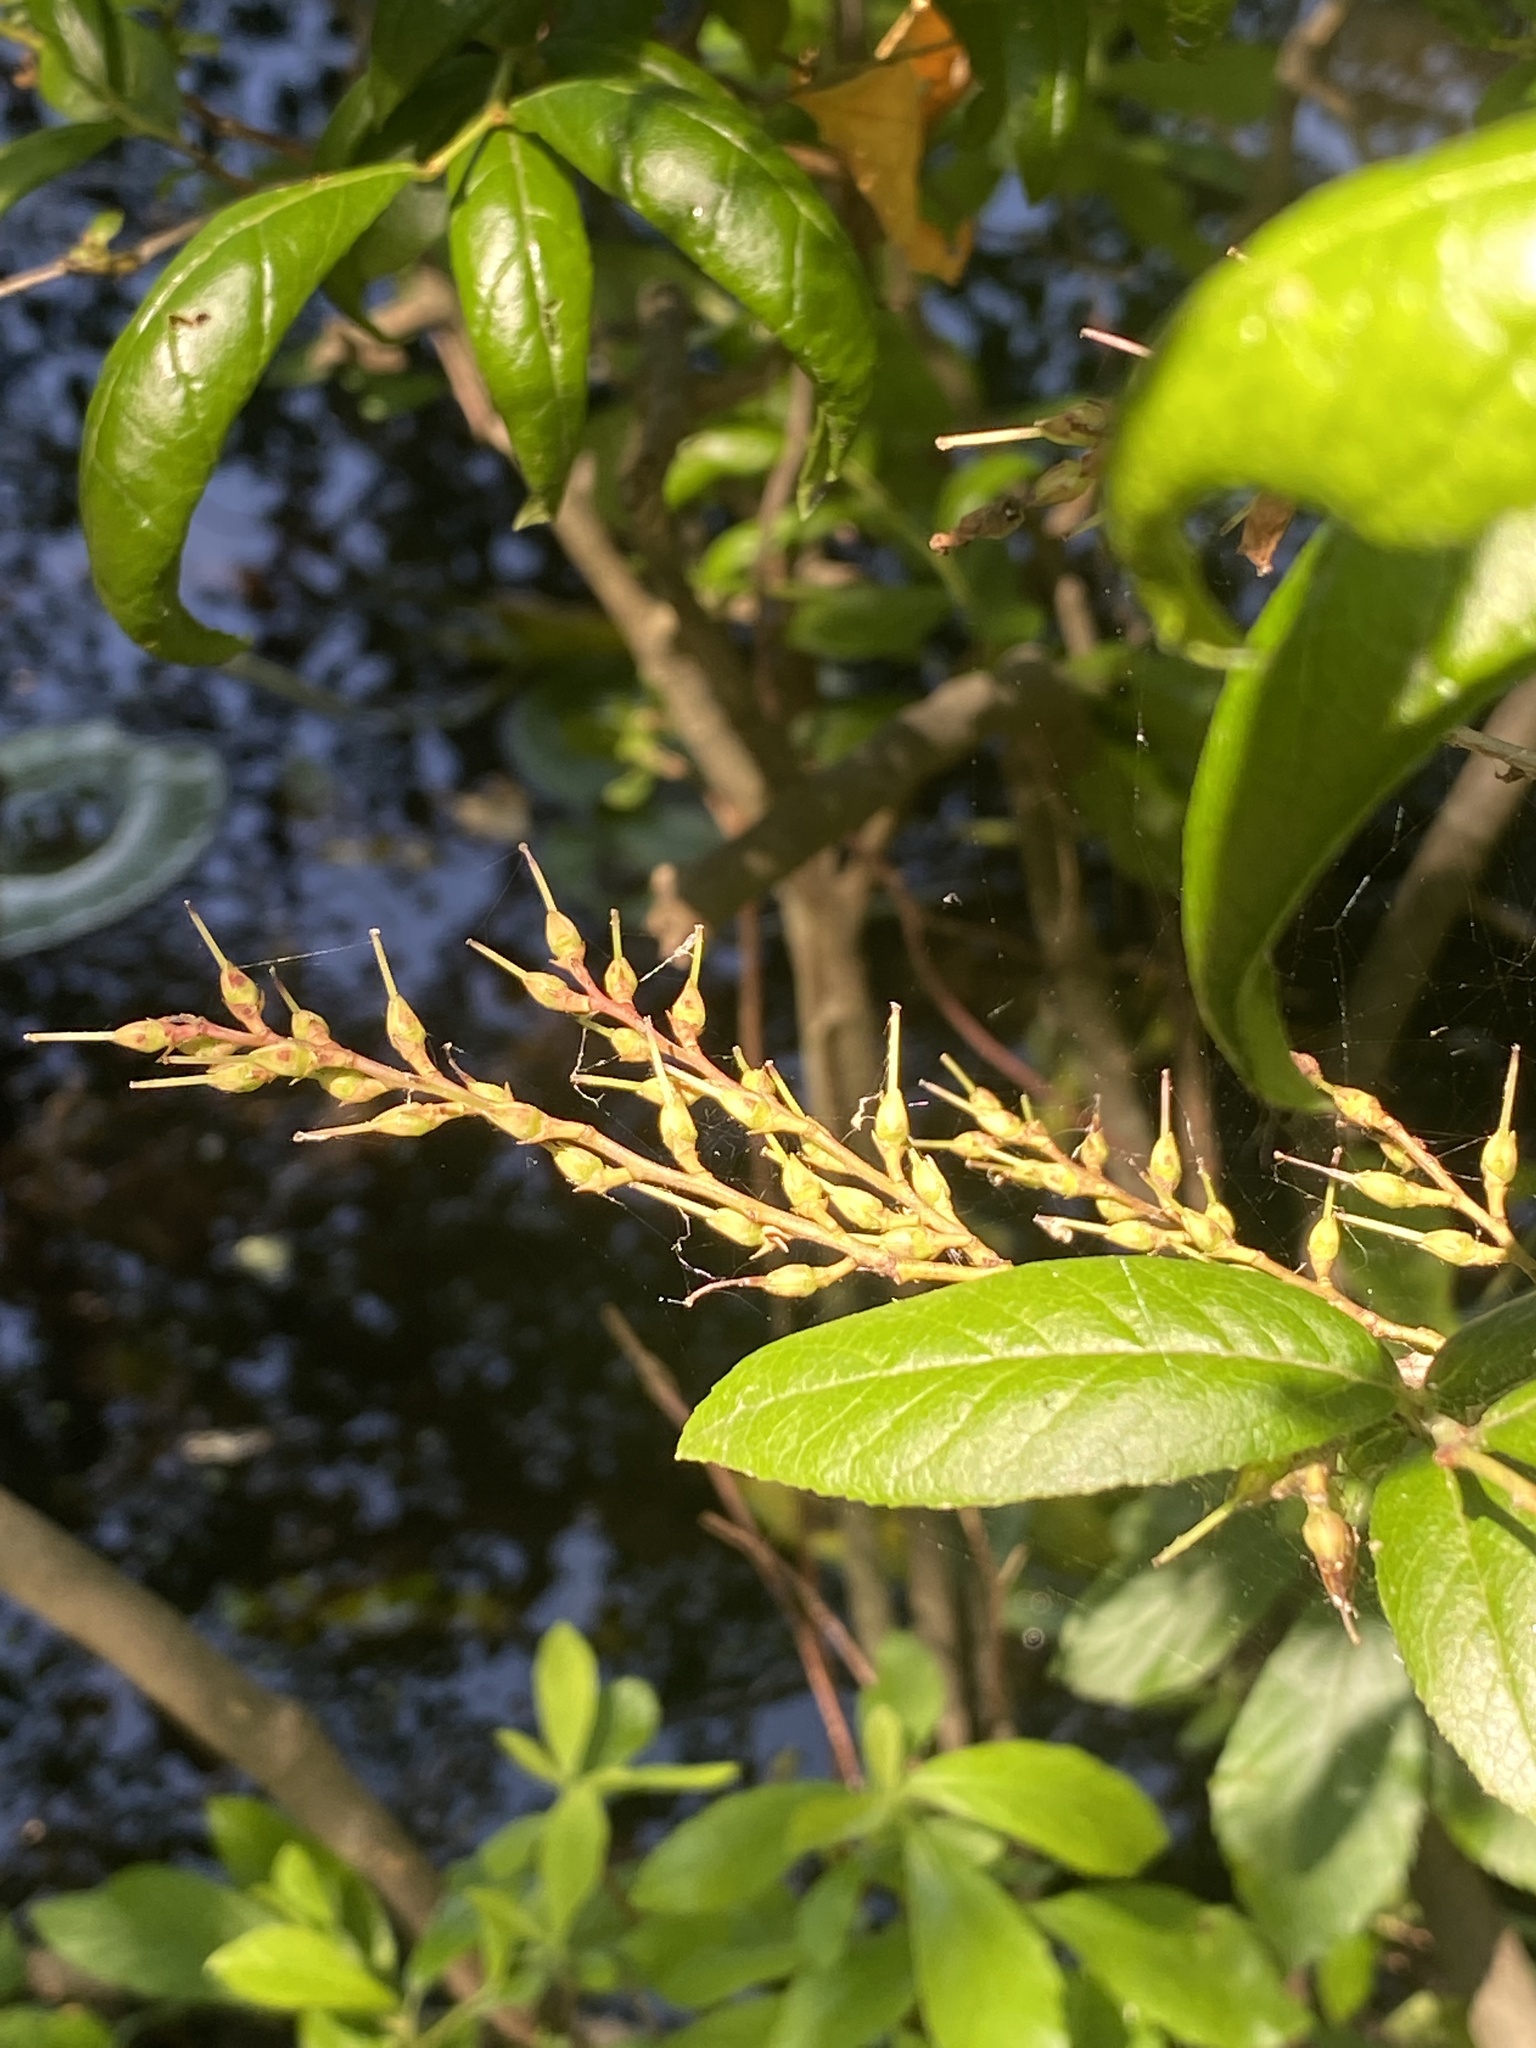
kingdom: Plantae
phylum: Tracheophyta
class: Magnoliopsida
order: Ericales
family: Ericaceae
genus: Eubotrys
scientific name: Eubotrys racemosa
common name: Fetterbush
